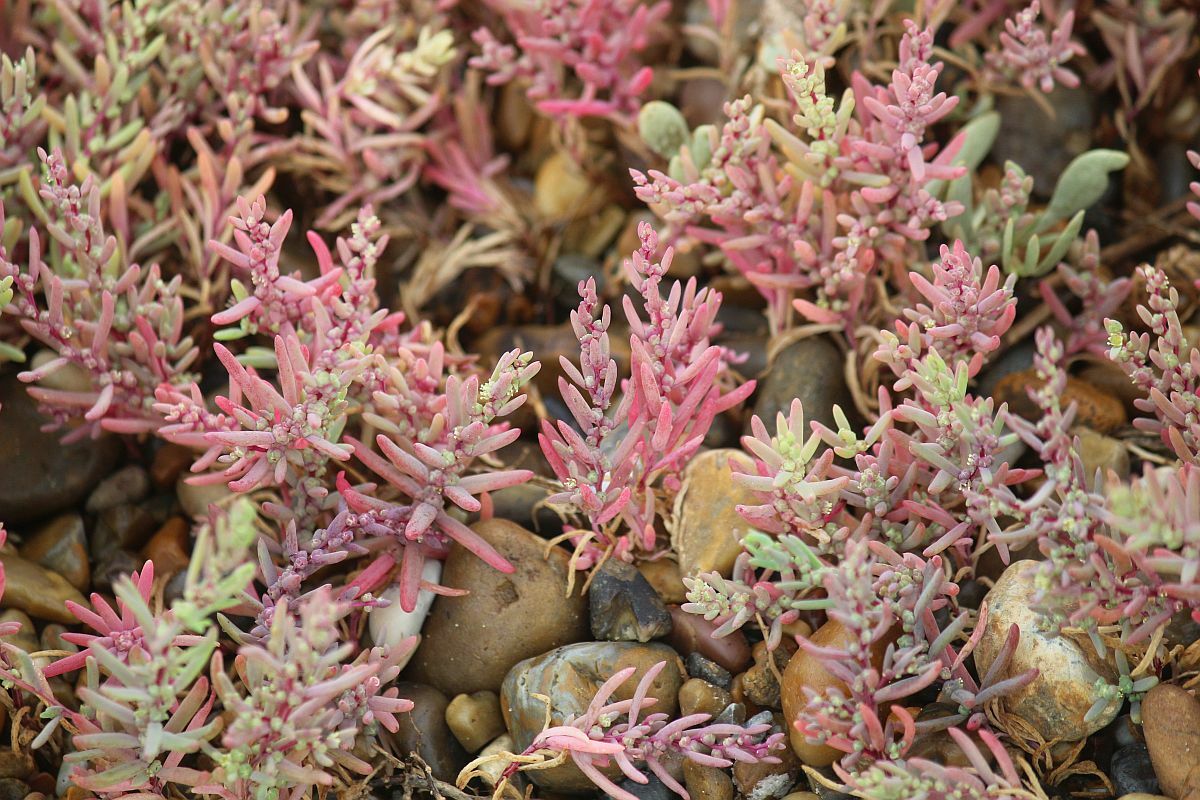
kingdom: Plantae
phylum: Tracheophyta
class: Magnoliopsida
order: Caryophyllales
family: Amaranthaceae
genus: Suaeda
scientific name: Suaeda maritima
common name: Annual sea-blite
